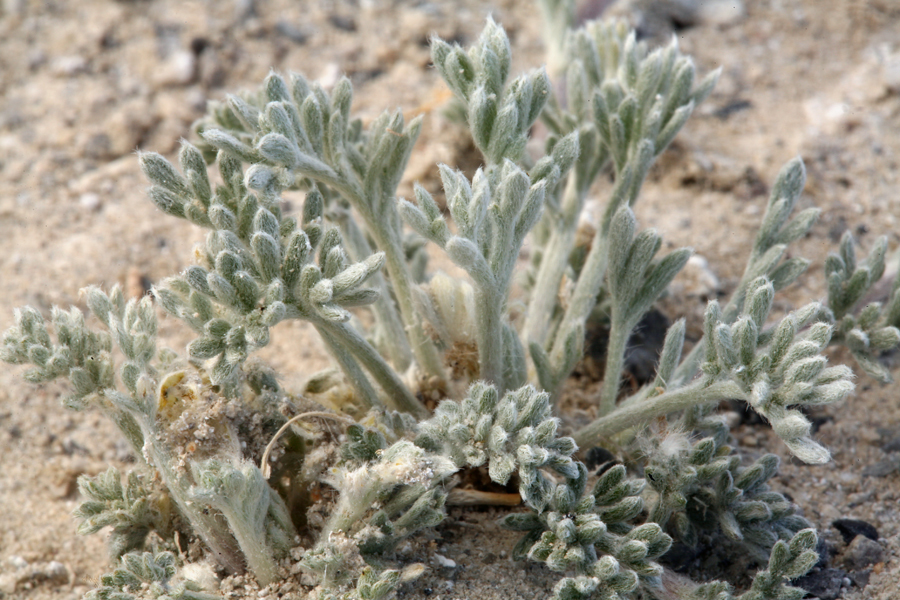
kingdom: Plantae
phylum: Tracheophyta
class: Magnoliopsida
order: Asterales
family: Asteraceae
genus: Artemisia
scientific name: Artemisia potentilloides
